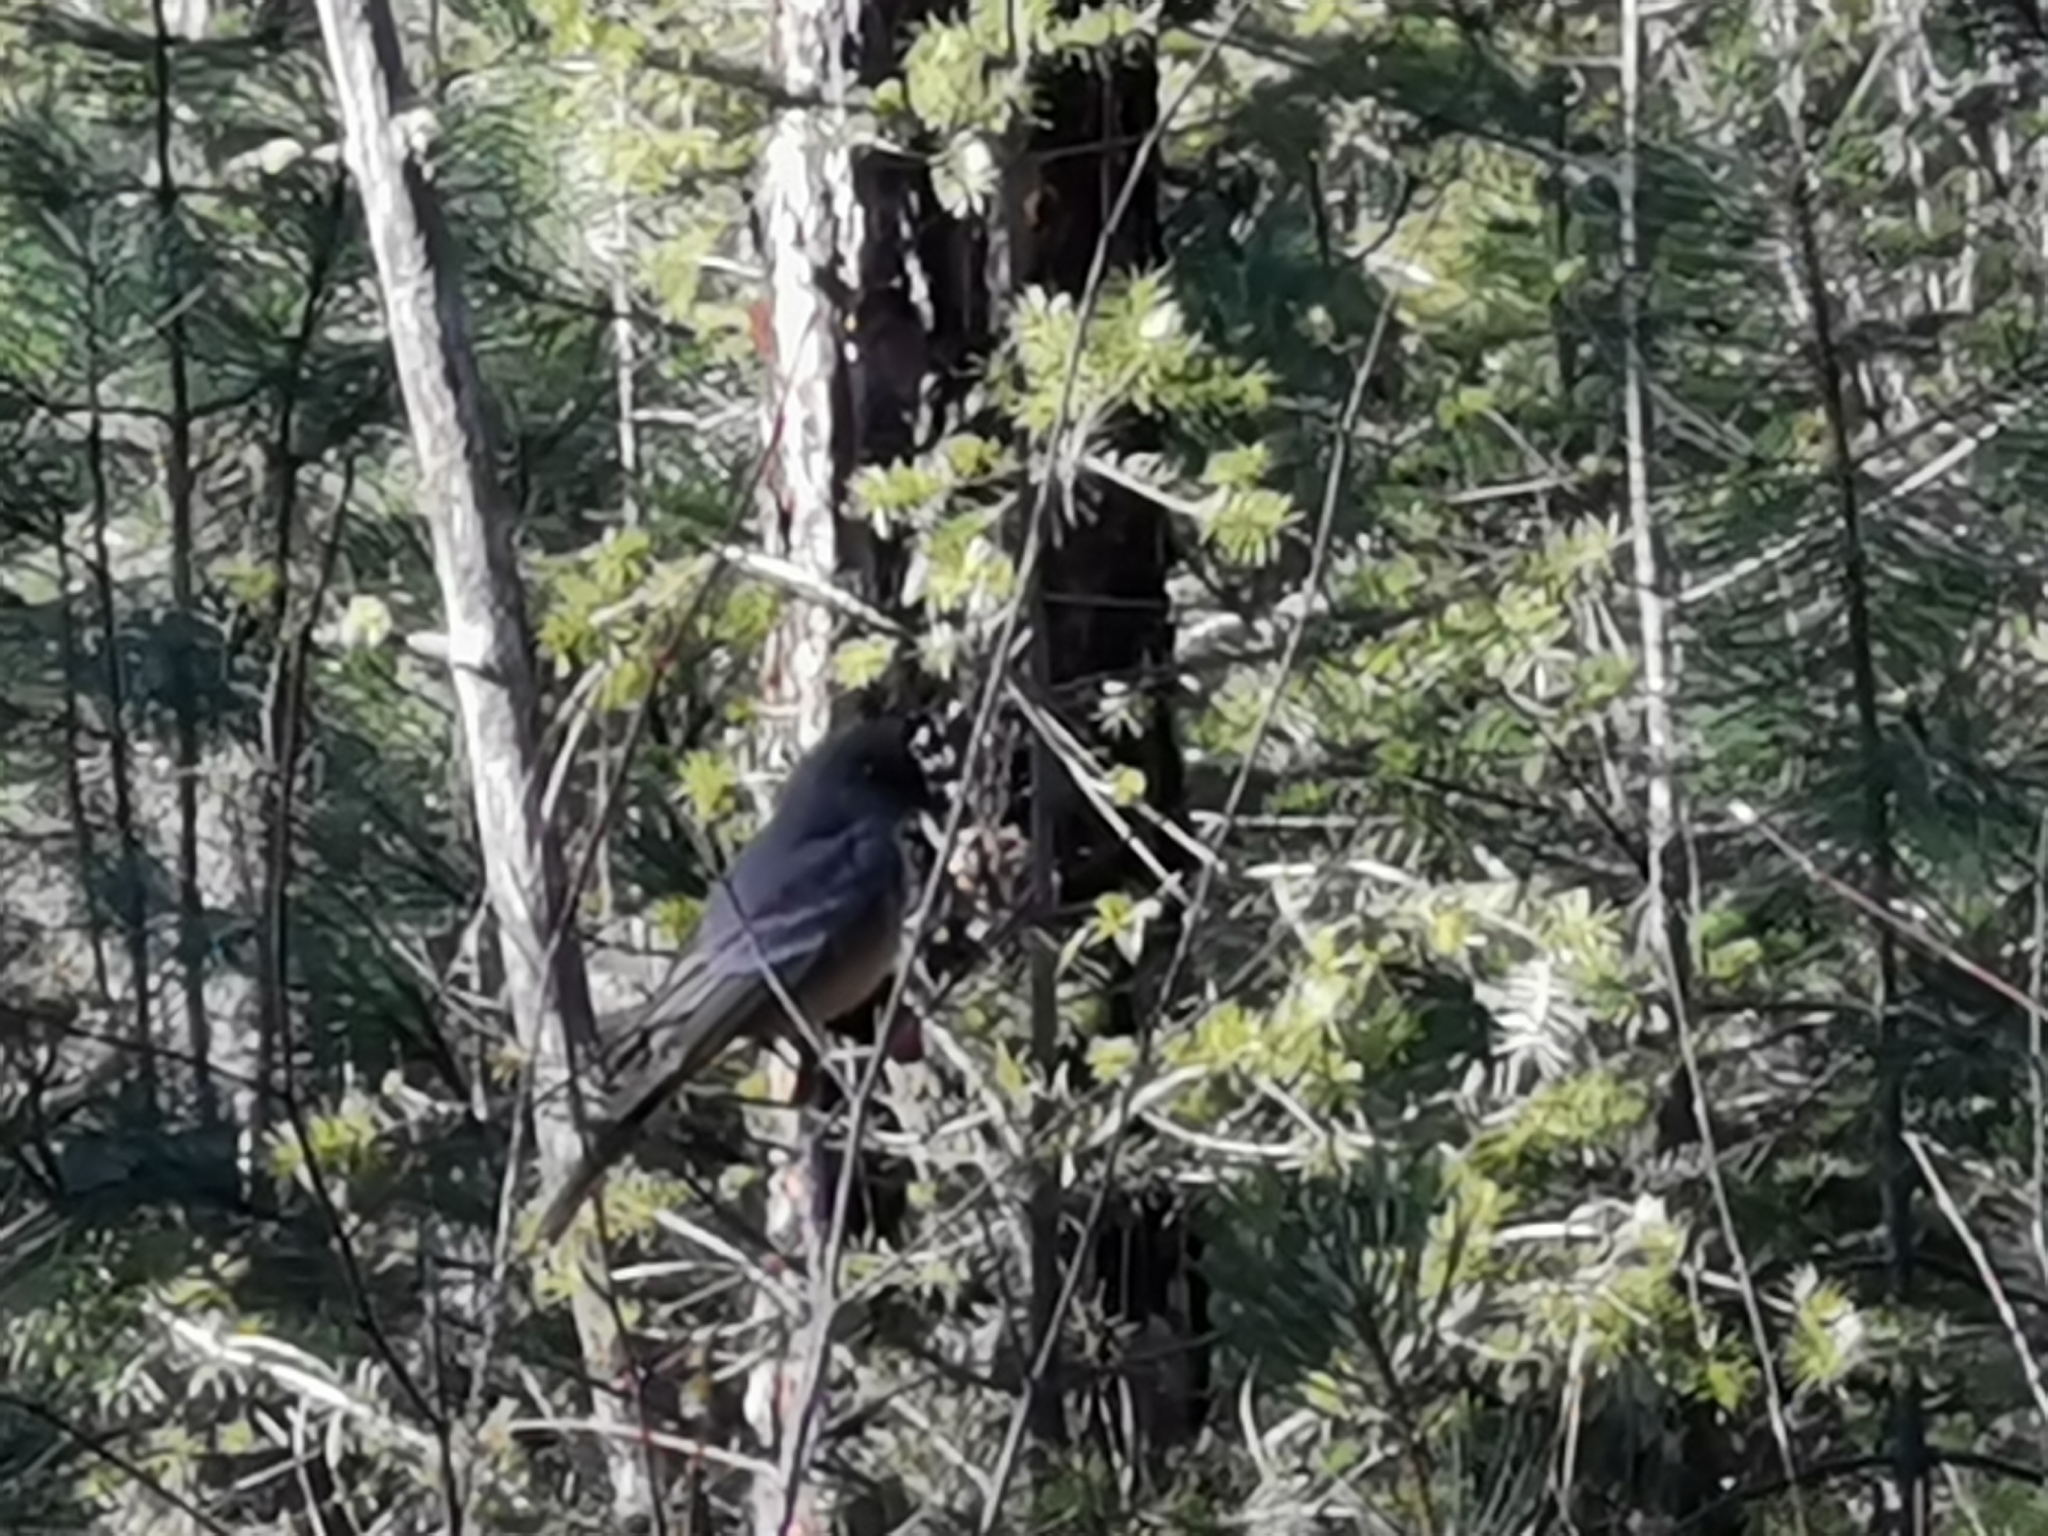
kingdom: Animalia
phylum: Chordata
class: Aves
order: Passeriformes
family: Tyrannidae
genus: Sayornis
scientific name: Sayornis saya
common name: Say's phoebe
